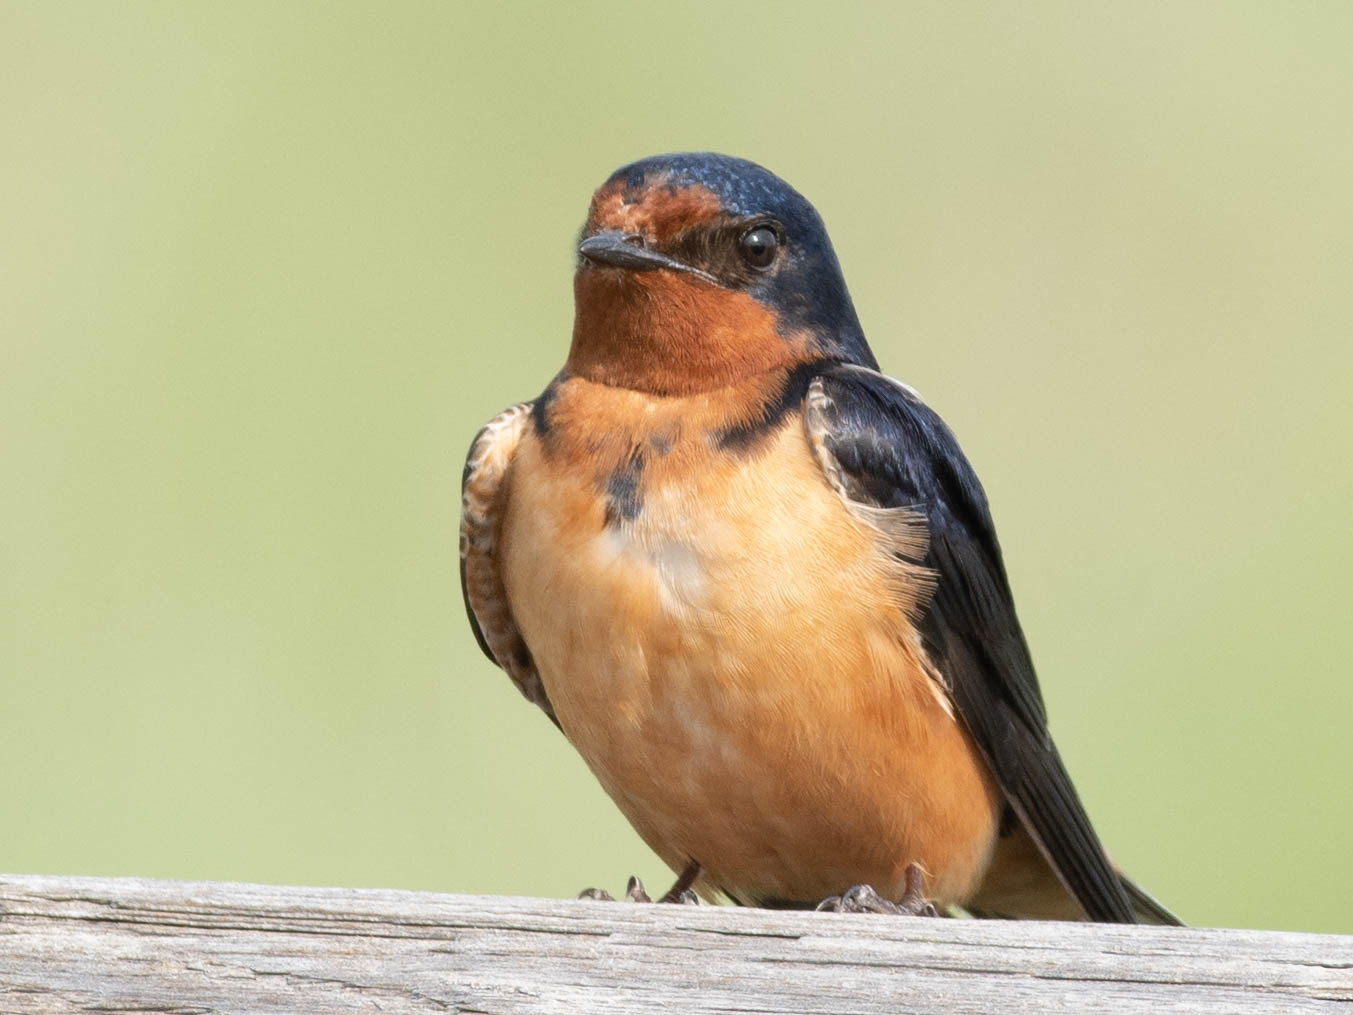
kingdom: Animalia
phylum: Chordata
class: Aves
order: Passeriformes
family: Hirundinidae
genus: Hirundo
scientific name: Hirundo rustica
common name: Barn swallow
